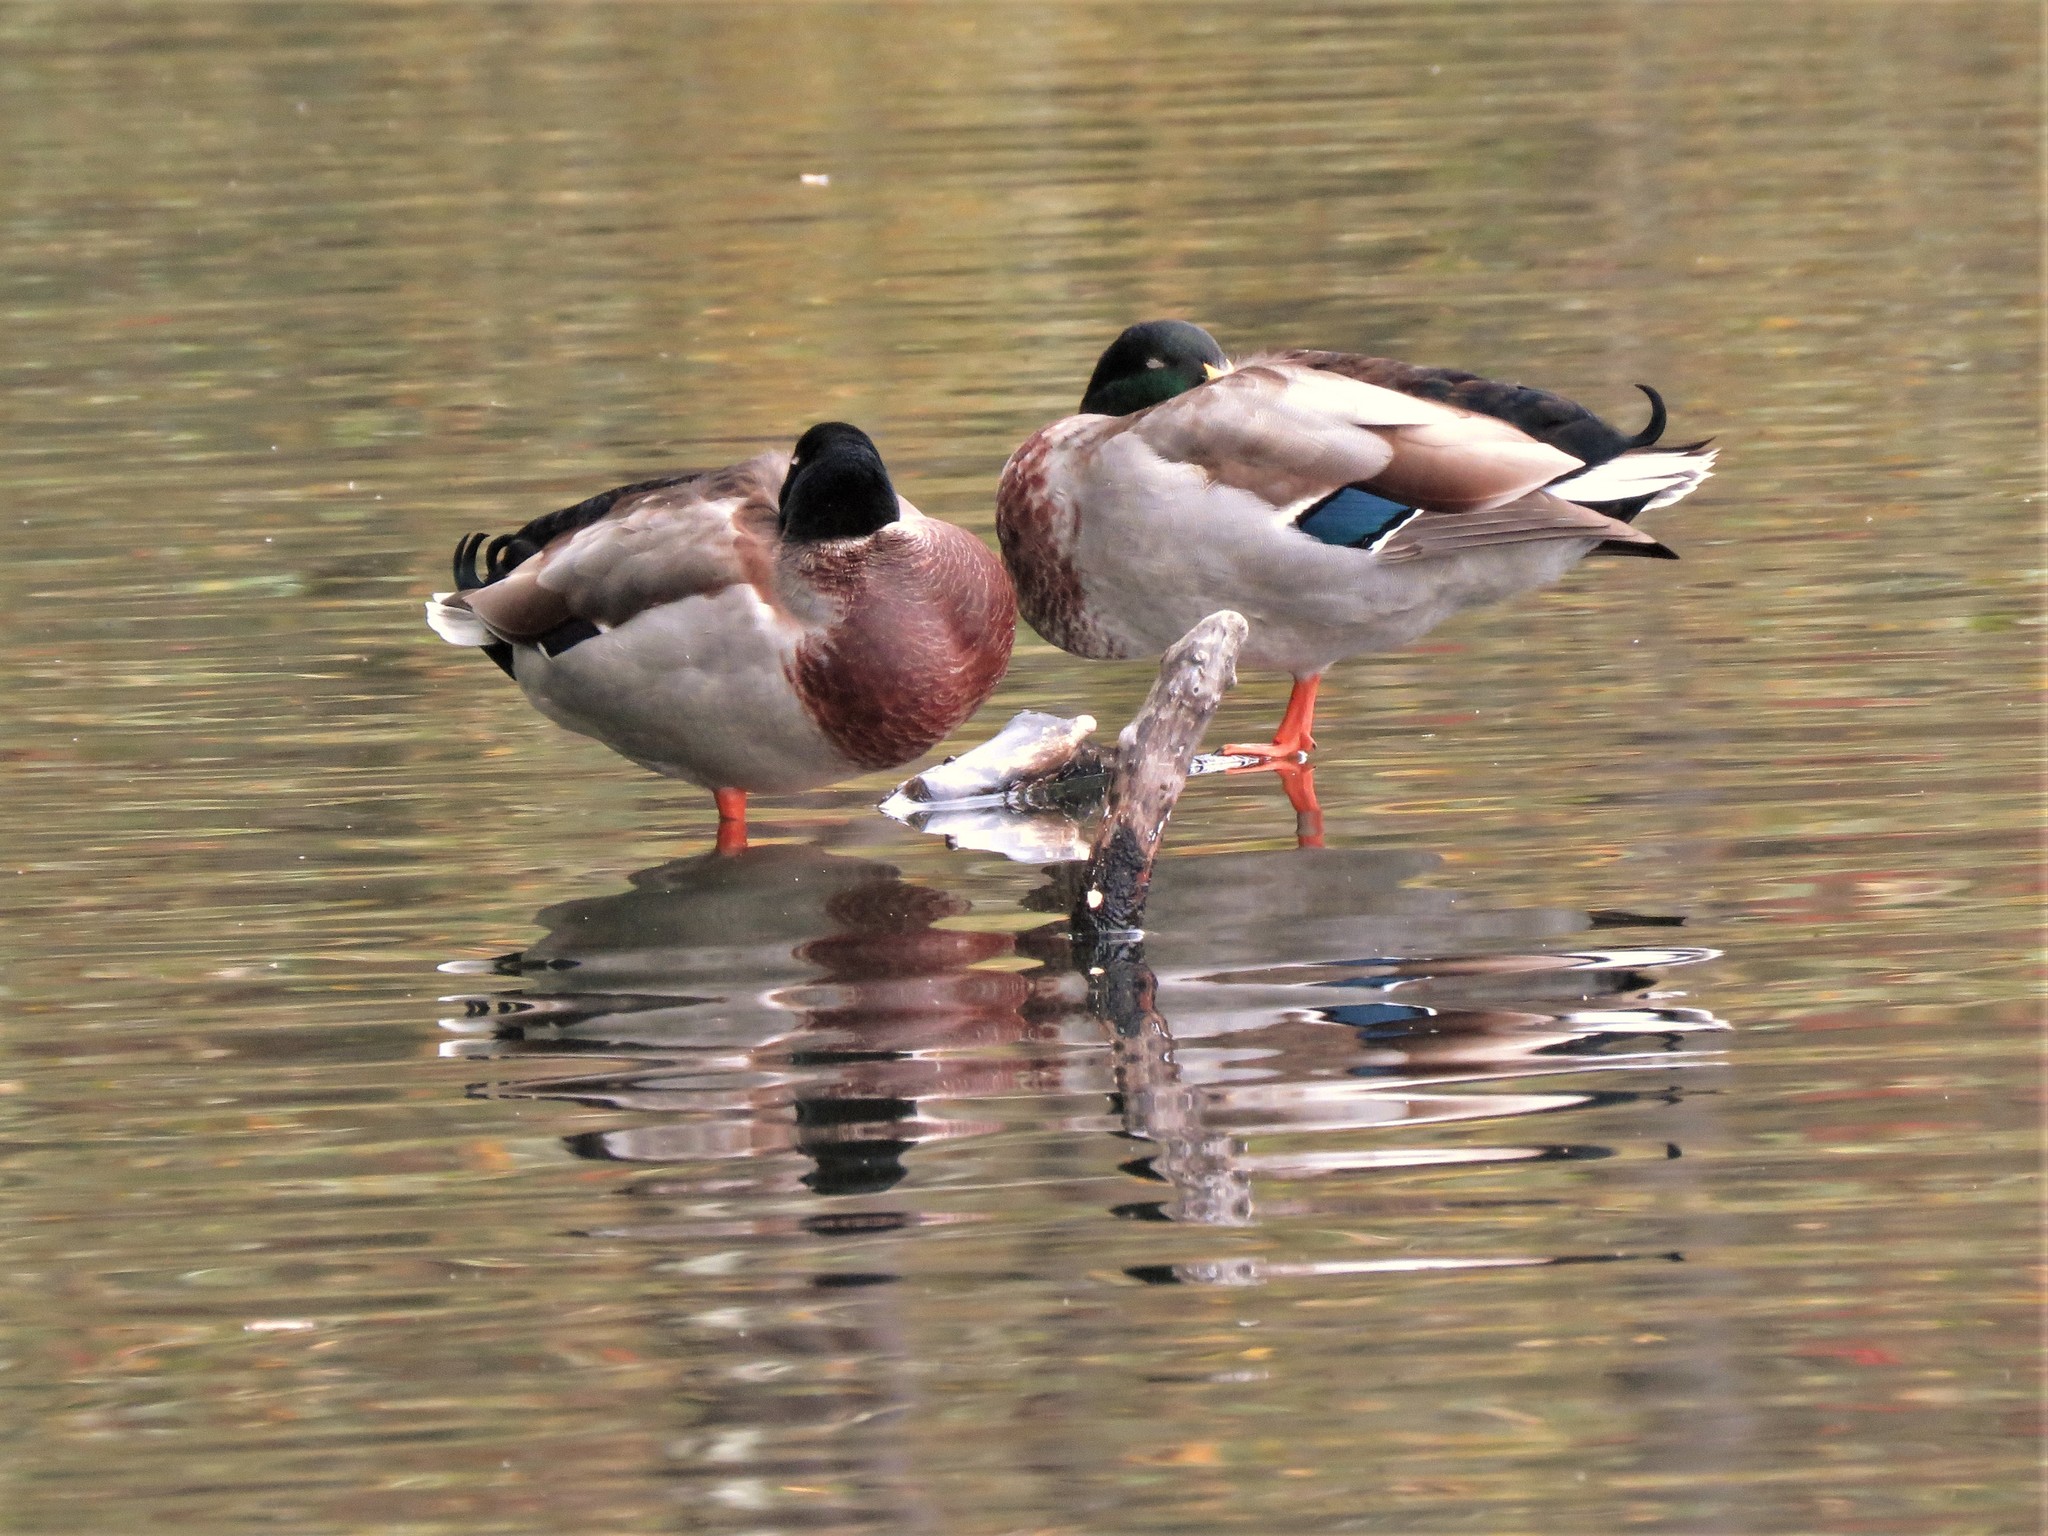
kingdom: Animalia
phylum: Chordata
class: Aves
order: Anseriformes
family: Anatidae
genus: Anas
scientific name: Anas platyrhynchos
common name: Mallard
